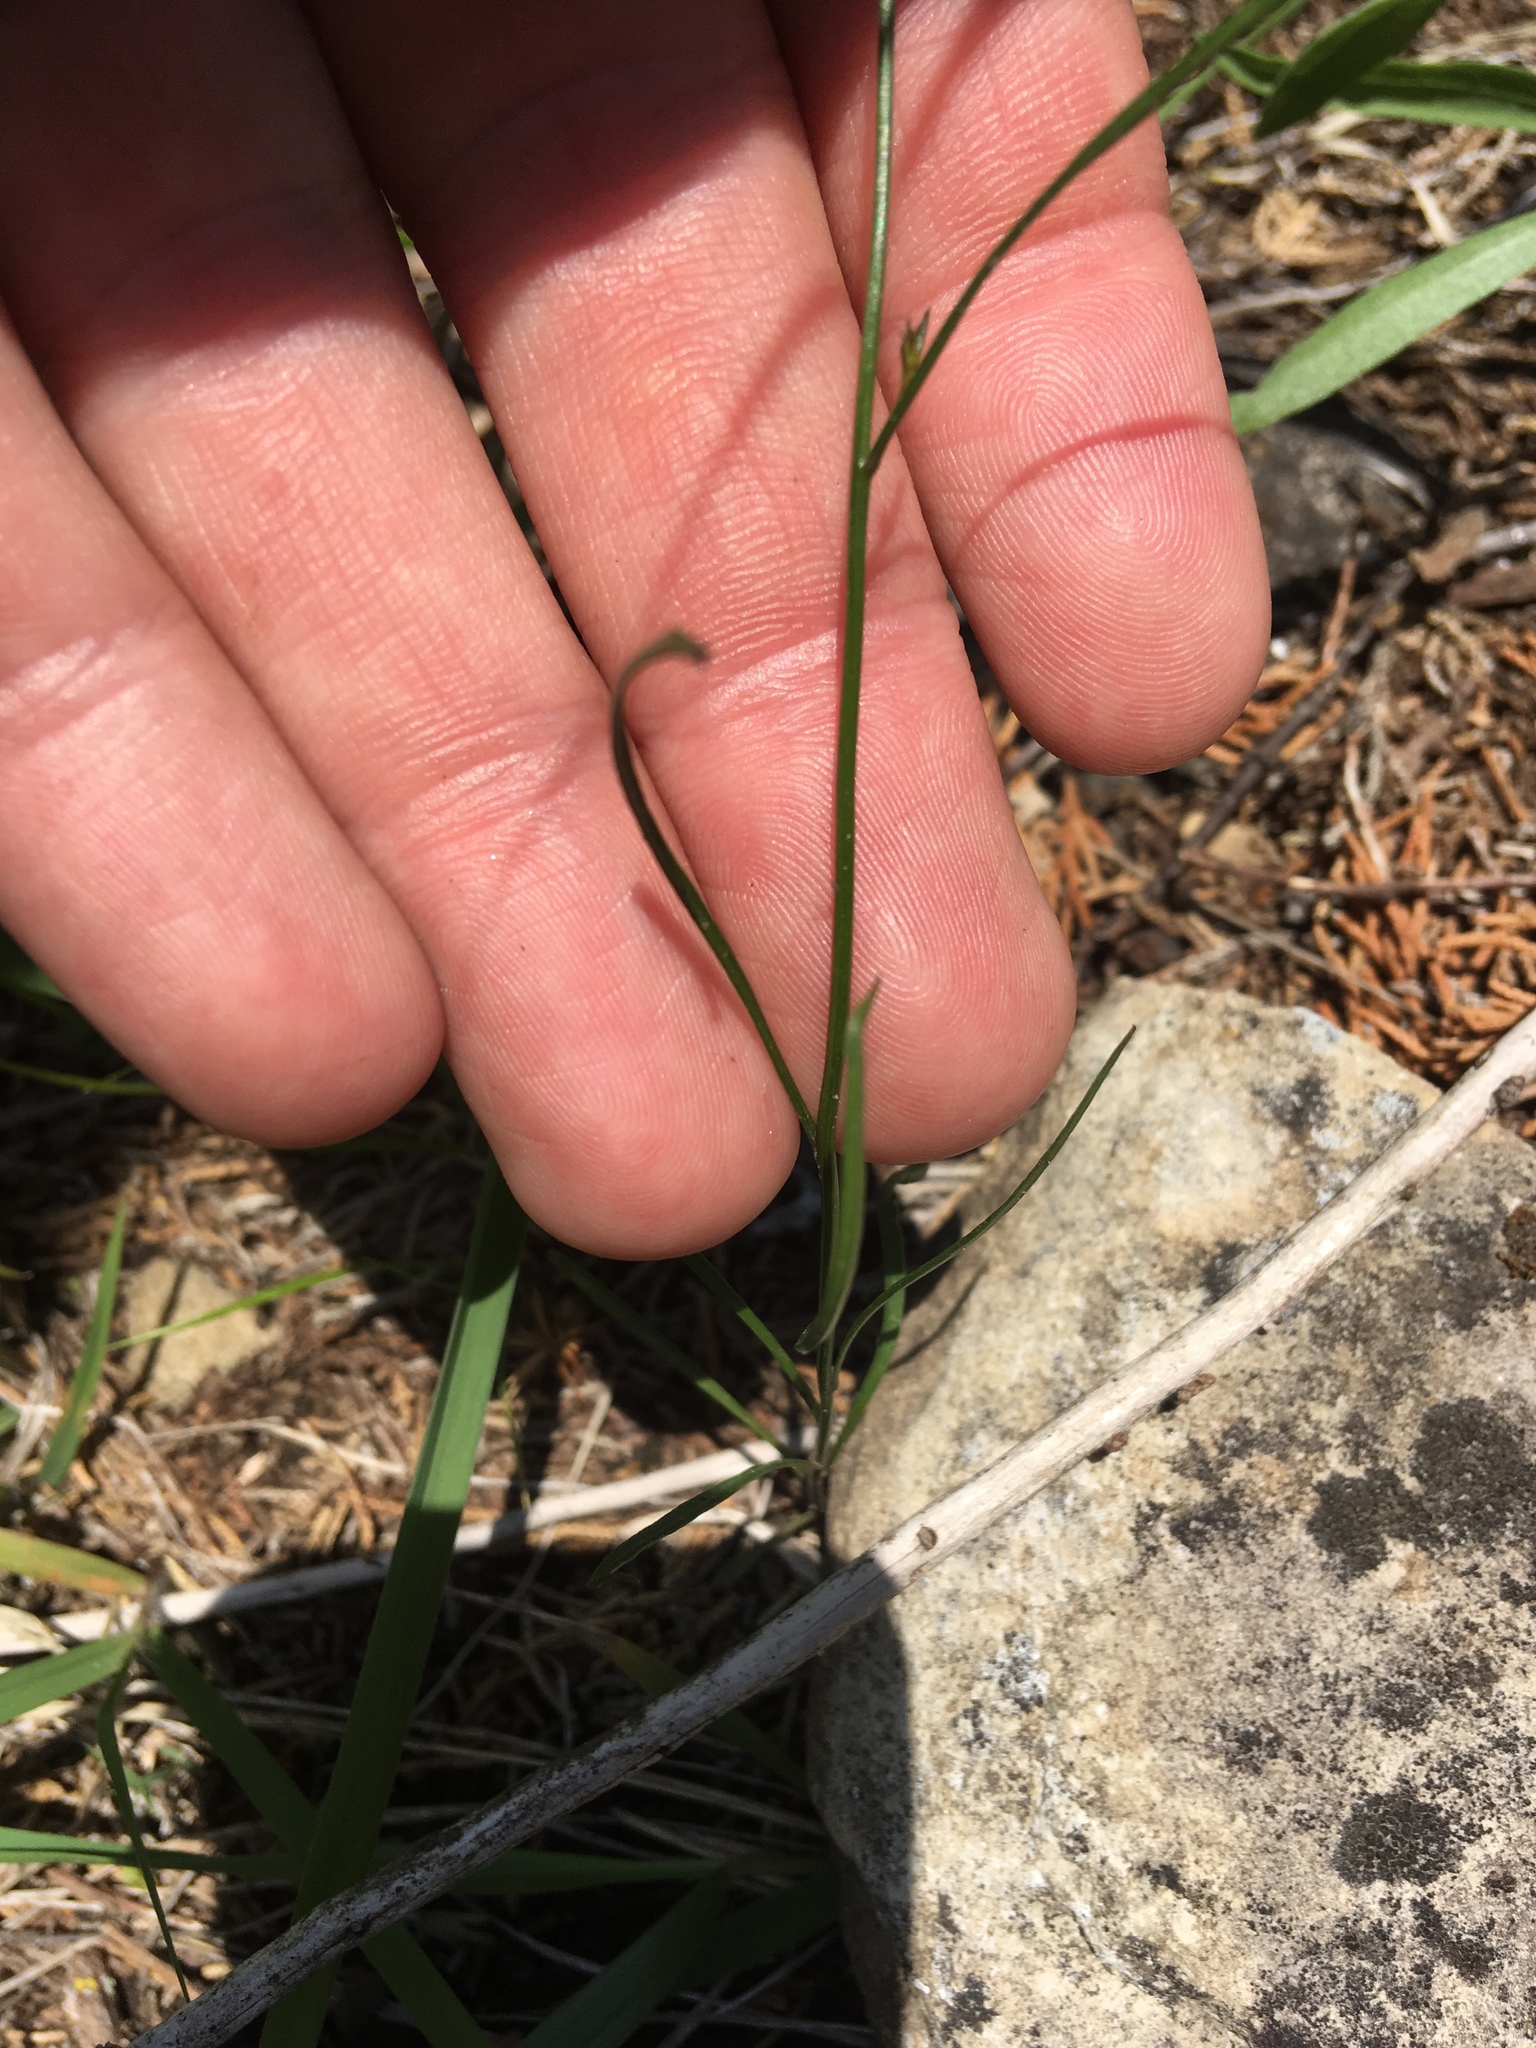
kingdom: Plantae
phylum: Tracheophyta
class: Magnoliopsida
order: Asterales
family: Campanulaceae
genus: Campanula
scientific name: Campanula intercedens
